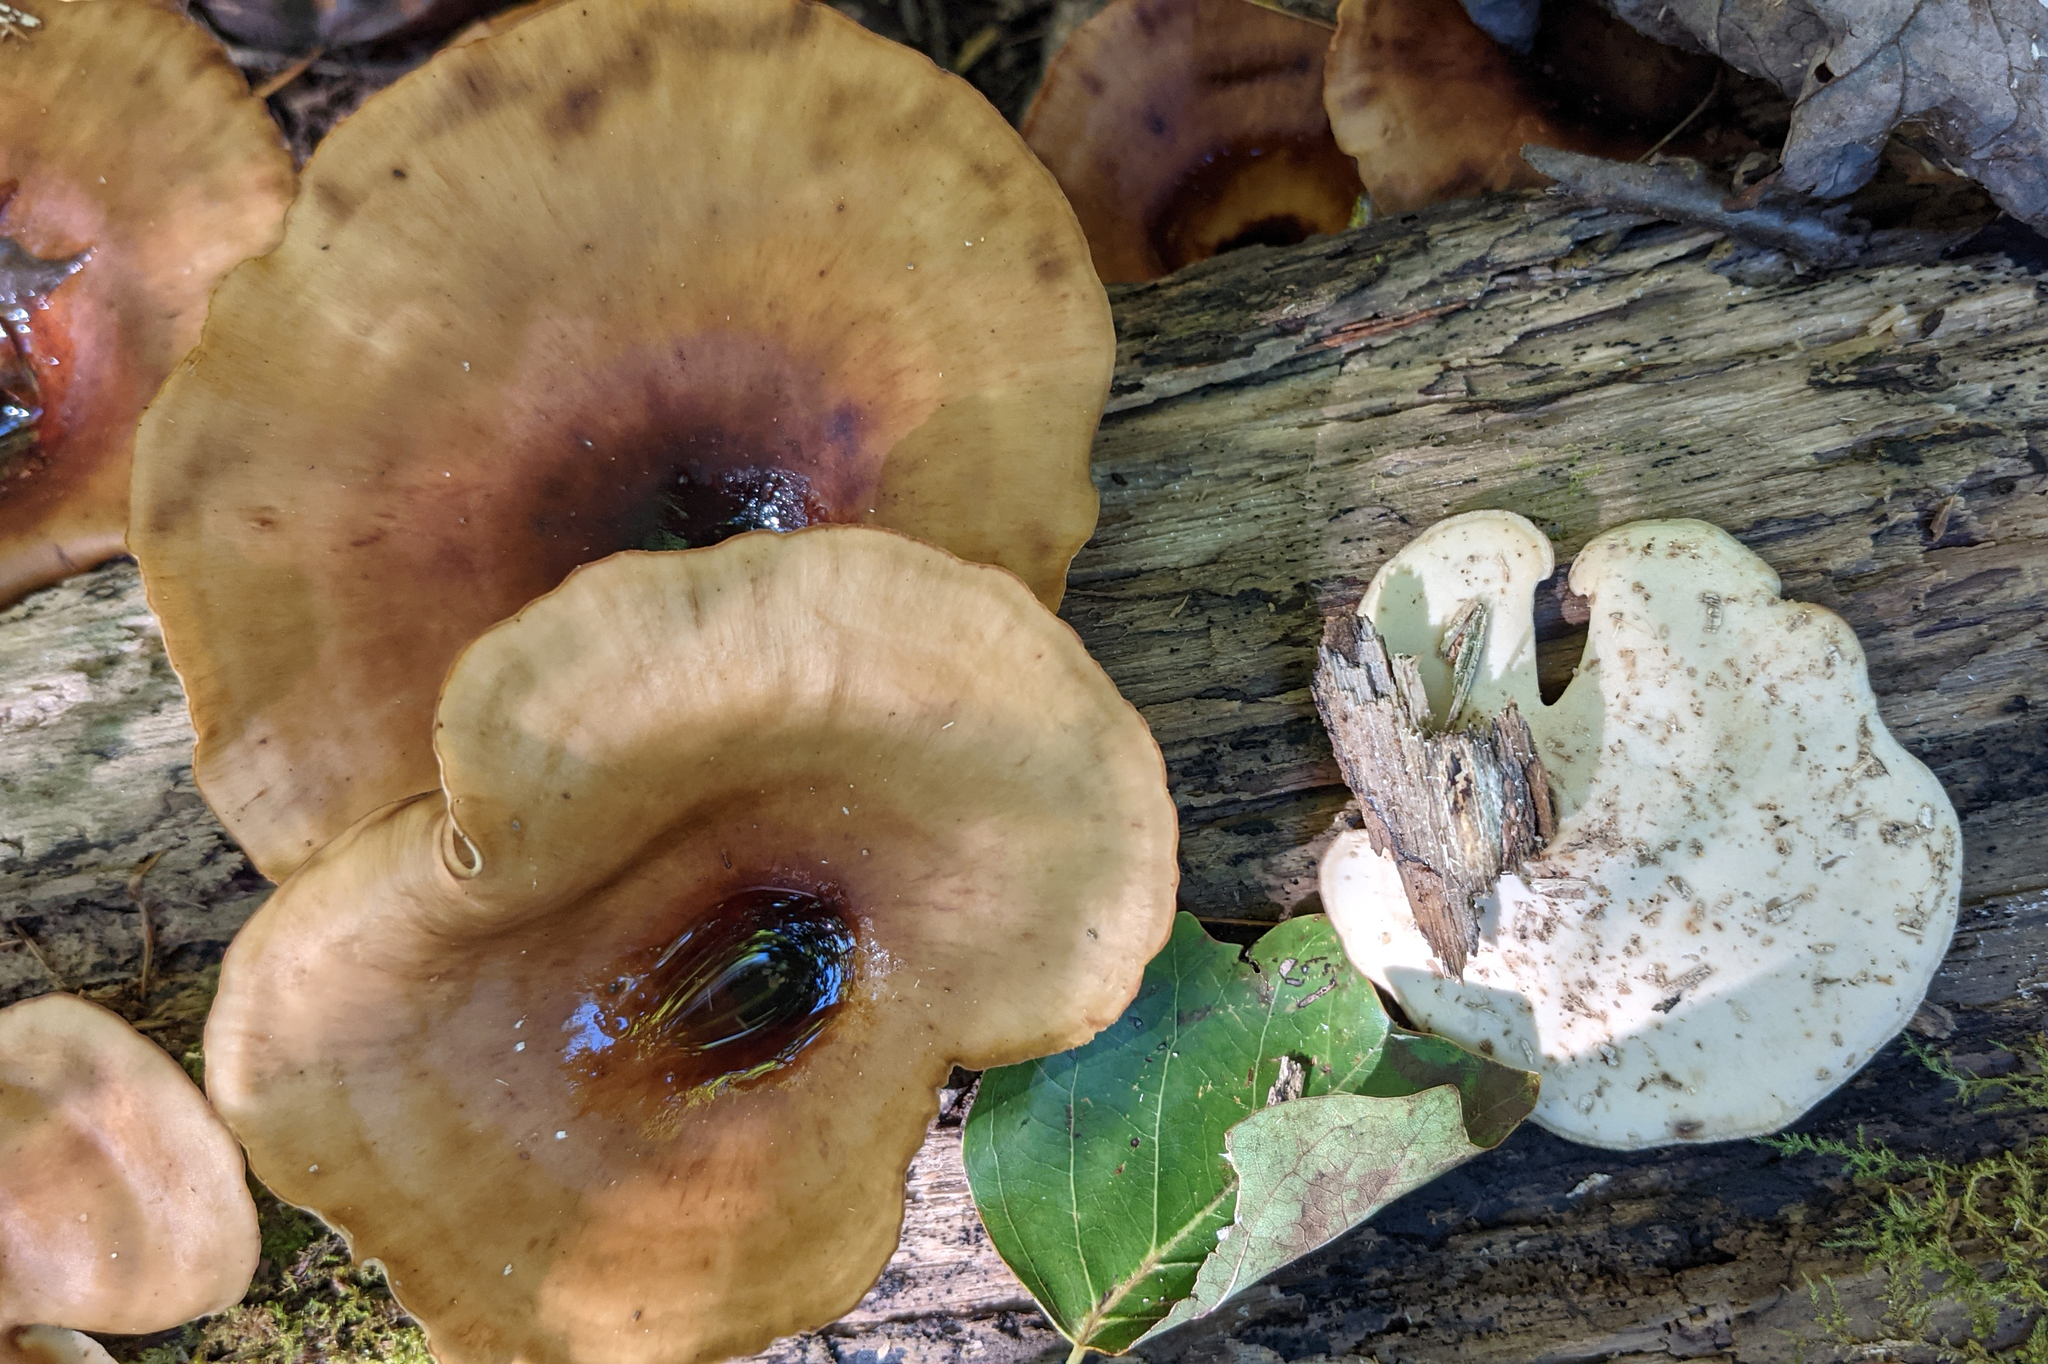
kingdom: Fungi
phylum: Basidiomycota
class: Agaricomycetes
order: Polyporales
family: Polyporaceae
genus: Picipes
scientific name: Picipes badius
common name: Bay polypore
